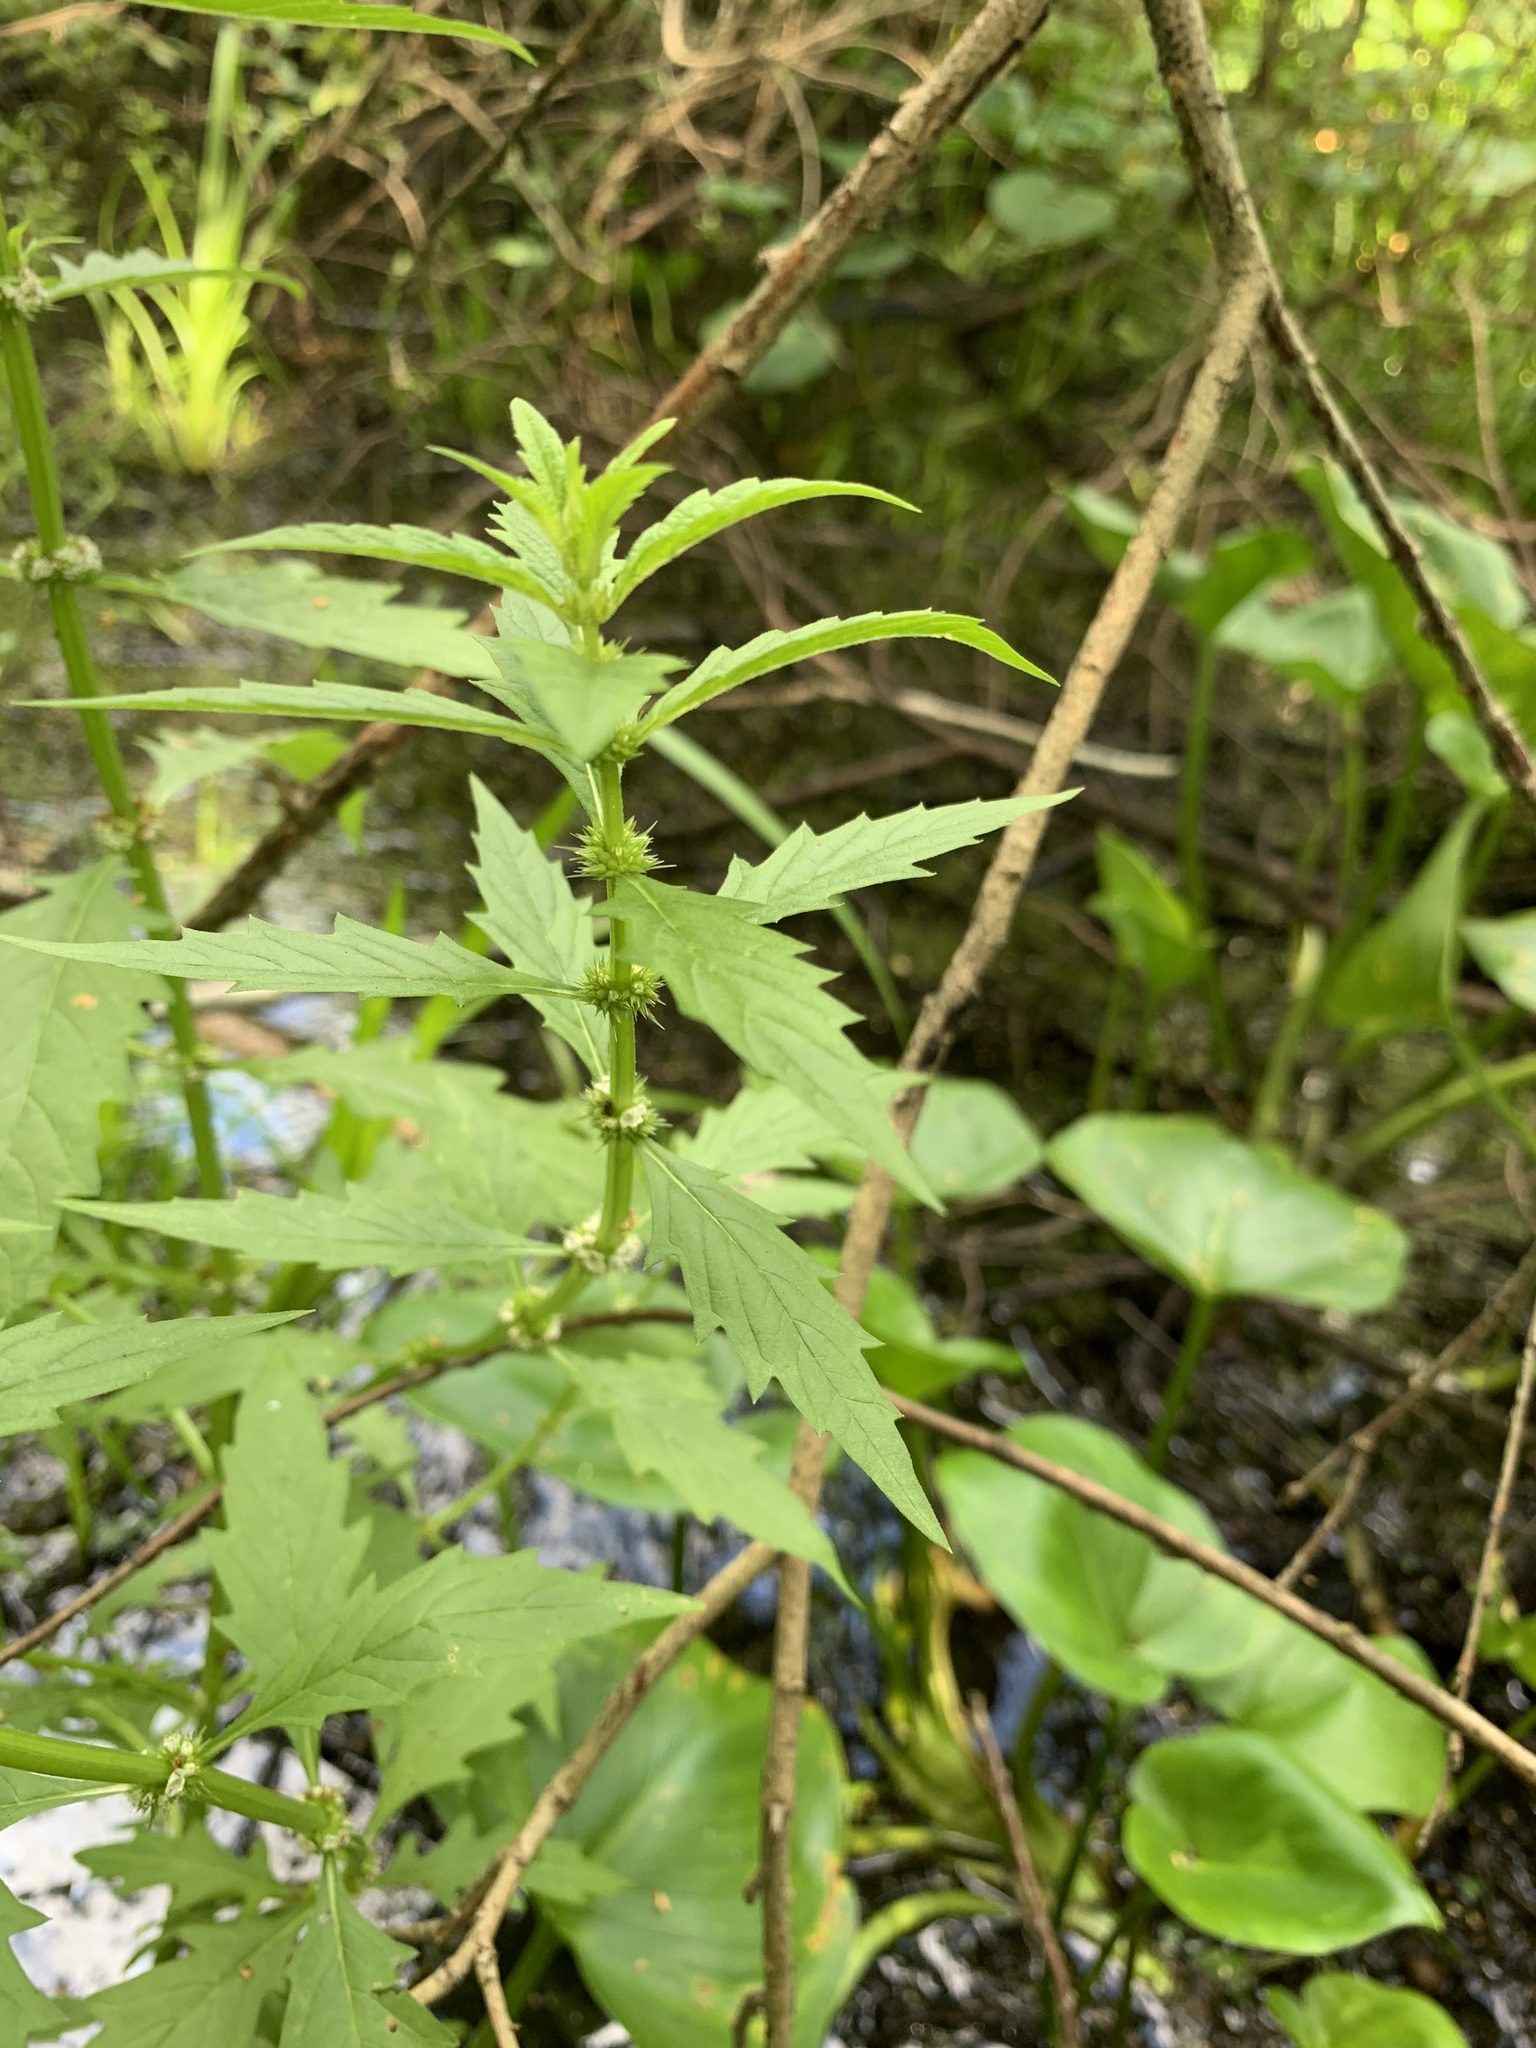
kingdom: Plantae
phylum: Tracheophyta
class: Magnoliopsida
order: Lamiales
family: Lamiaceae
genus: Lycopus
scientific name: Lycopus europaeus
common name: European bugleweed
